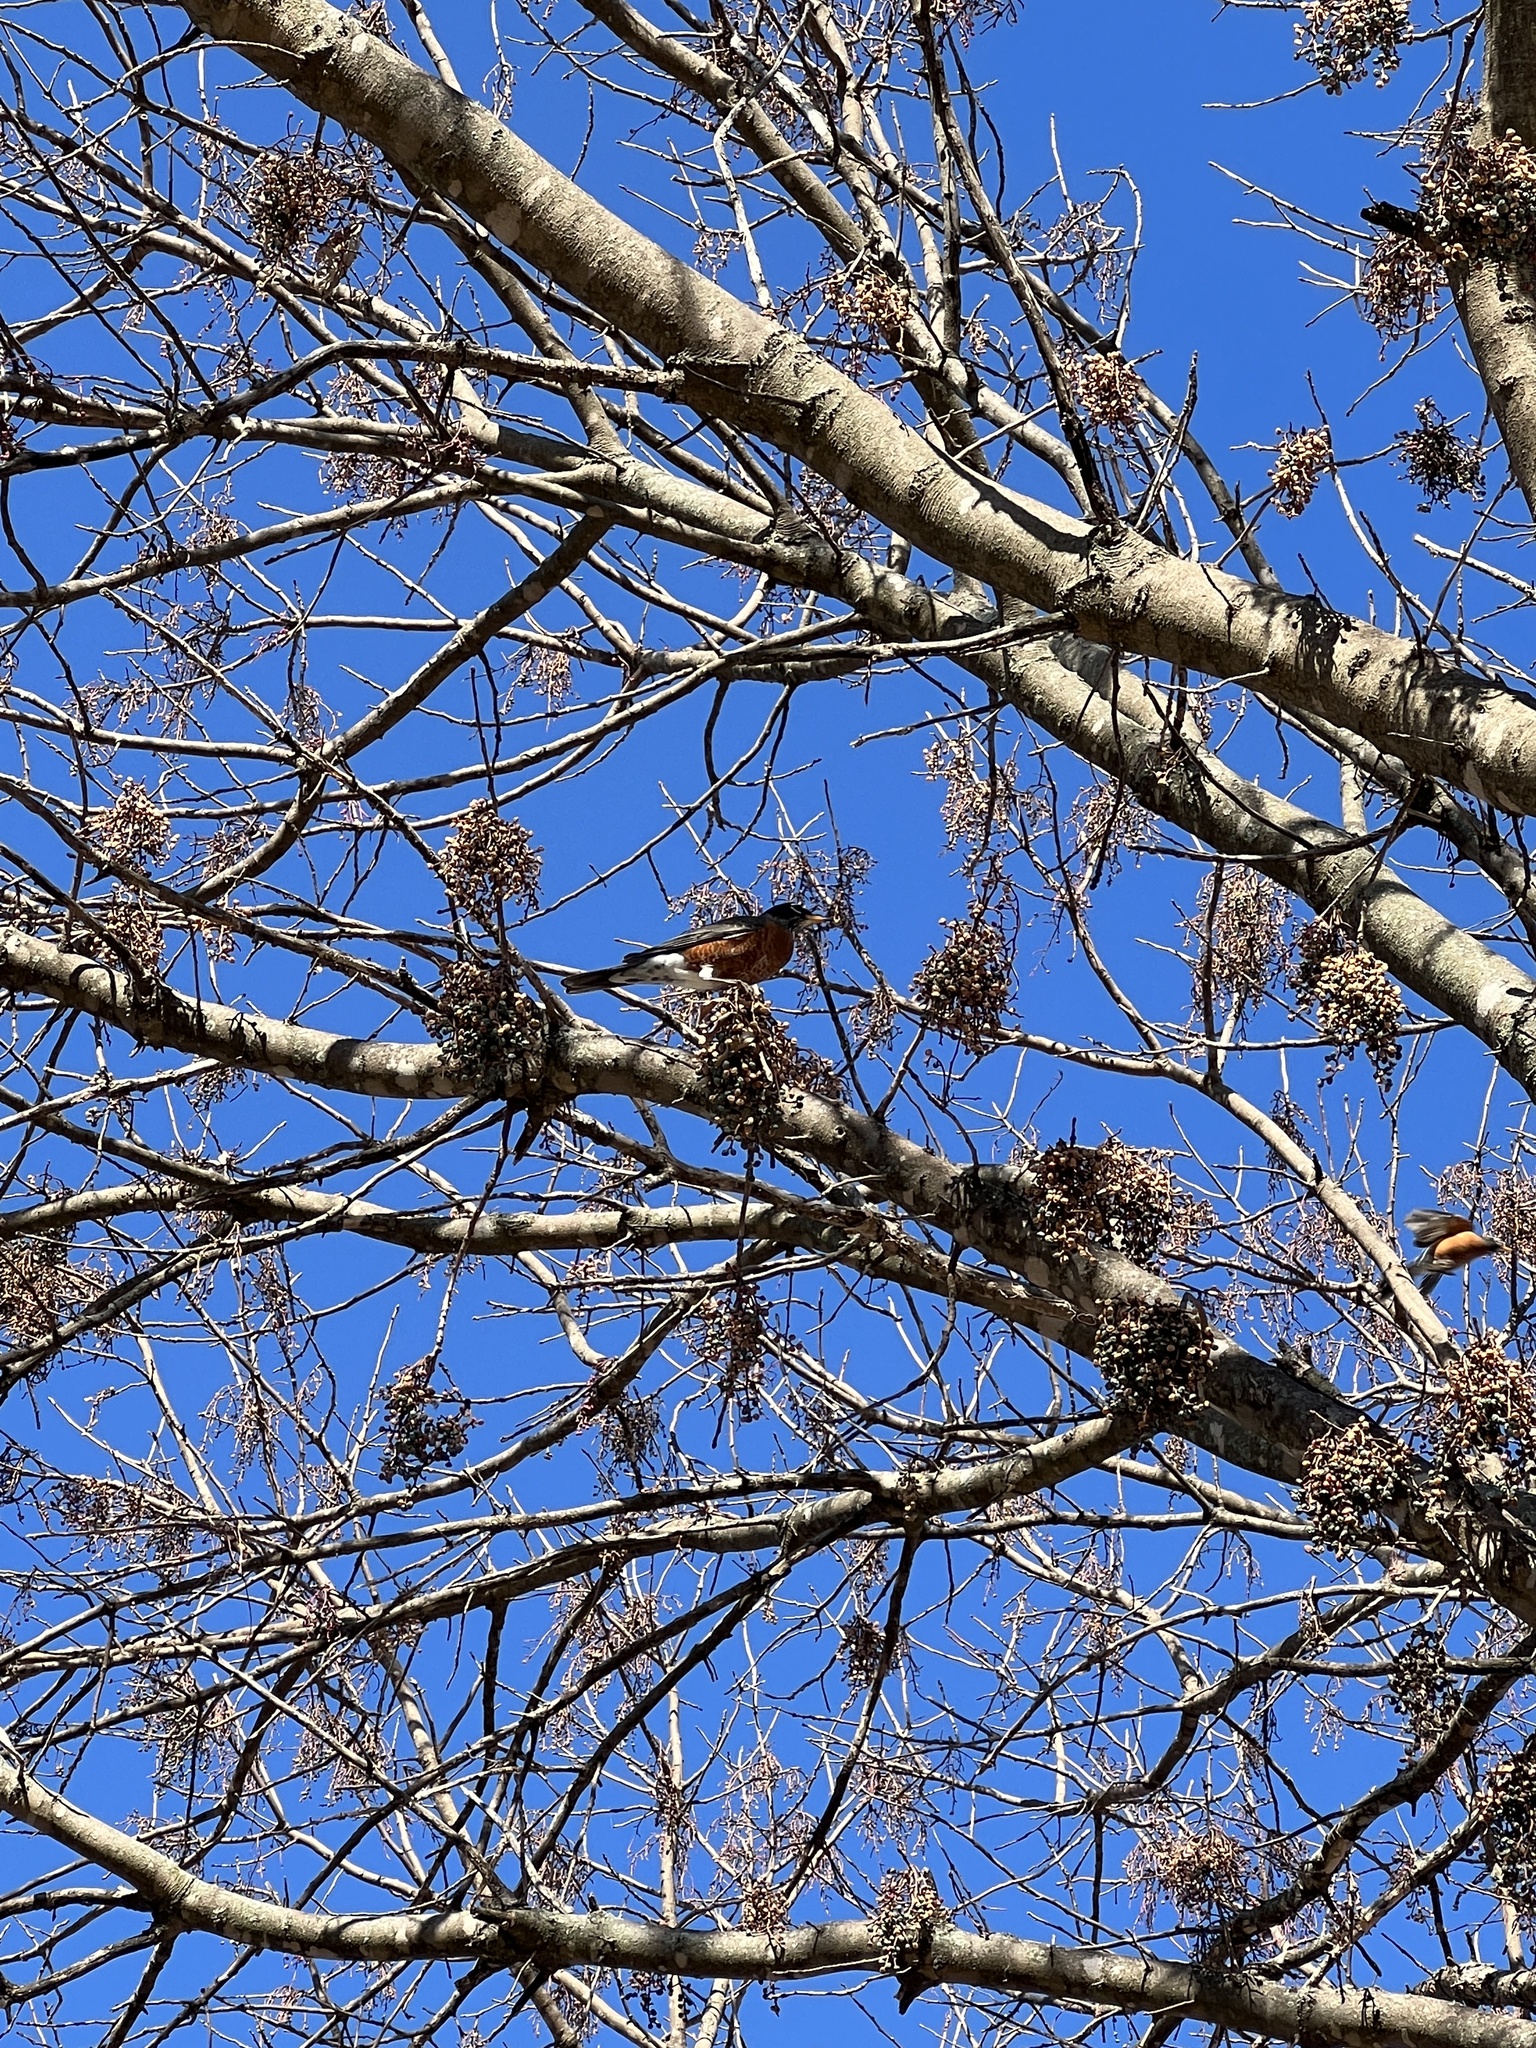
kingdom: Animalia
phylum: Chordata
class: Aves
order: Passeriformes
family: Turdidae
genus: Turdus
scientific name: Turdus migratorius
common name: American robin
